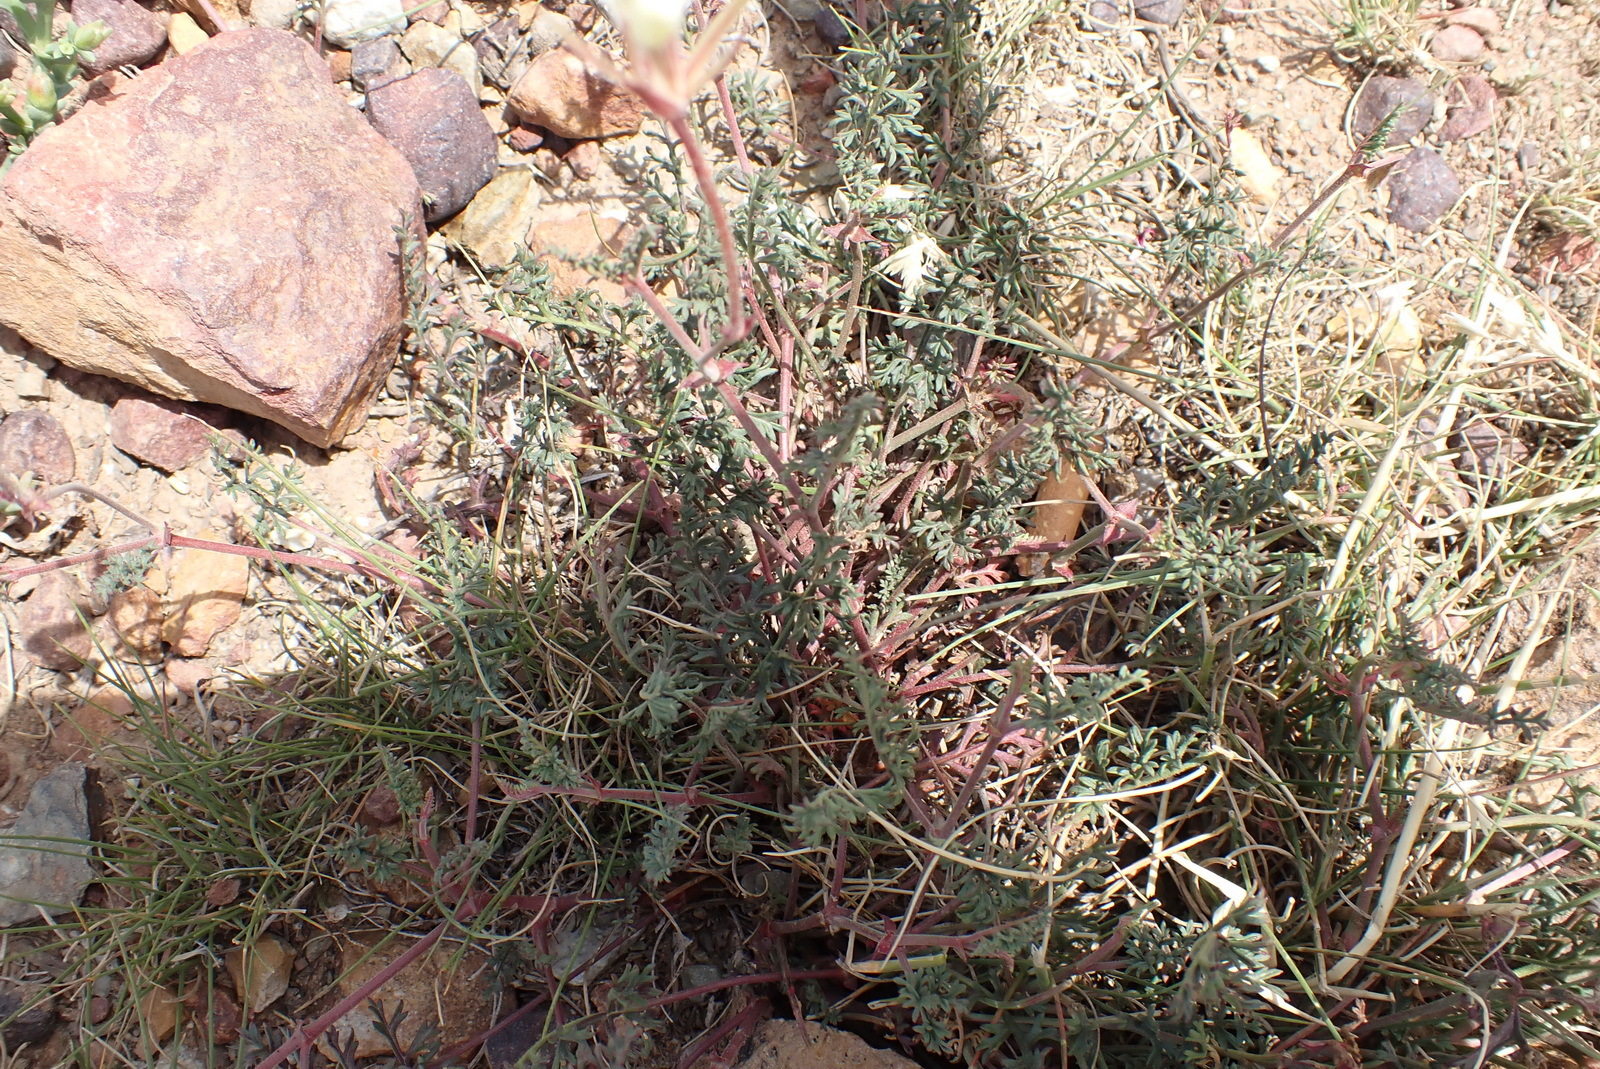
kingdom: Plantae
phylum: Tracheophyta
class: Magnoliopsida
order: Geraniales
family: Geraniaceae
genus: Pelargonium
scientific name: Pelargonium caucalifolium
